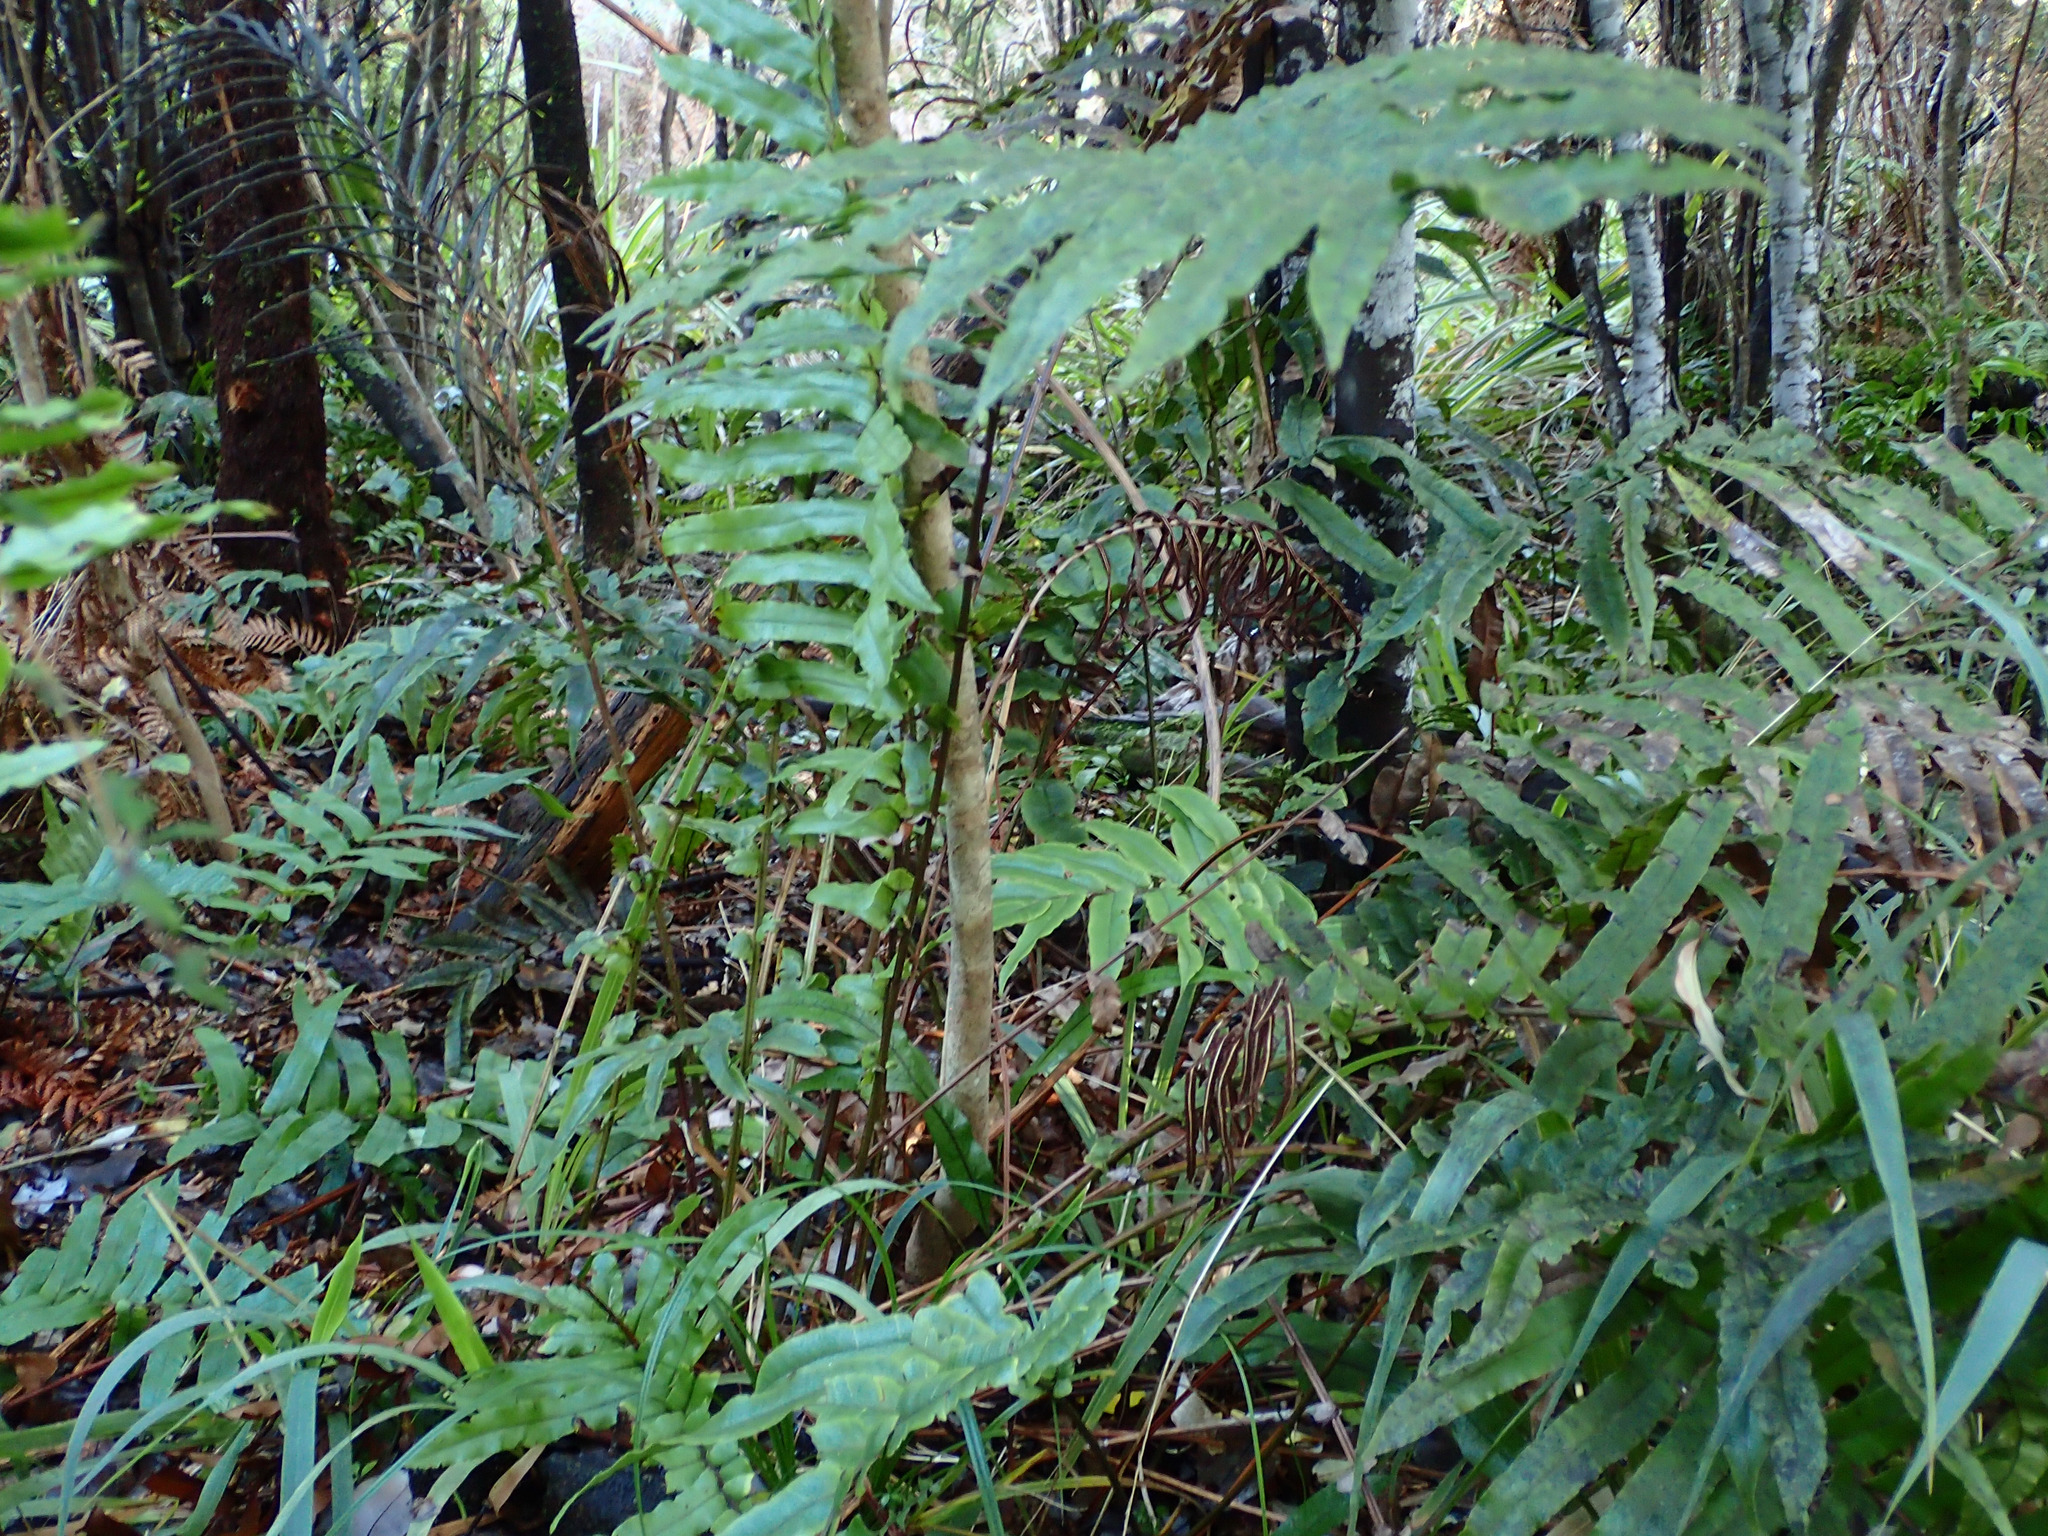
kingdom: Plantae
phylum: Tracheophyta
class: Polypodiopsida
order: Polypodiales
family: Blechnaceae
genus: Parablechnum
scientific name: Parablechnum novae-zelandiae
